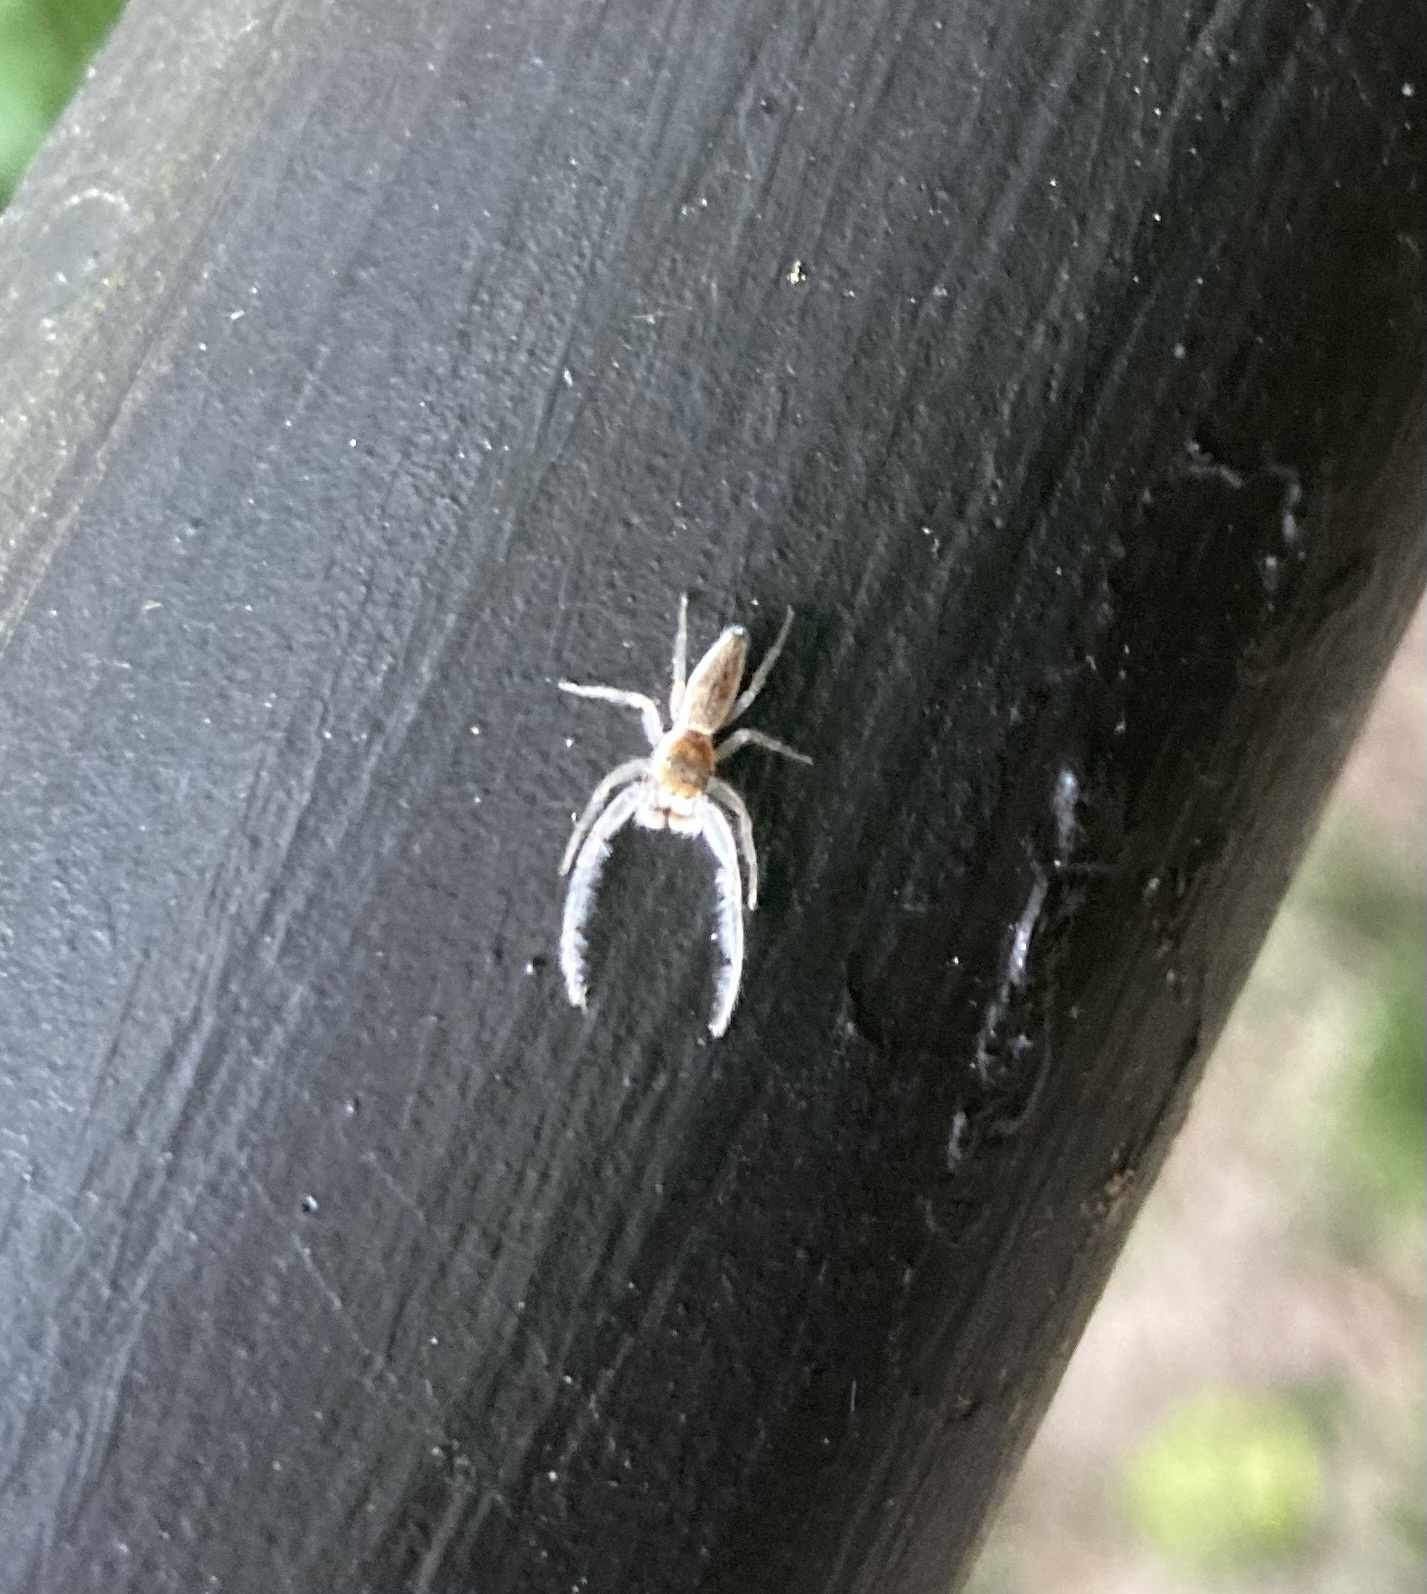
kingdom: Animalia
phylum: Arthropoda
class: Arachnida
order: Araneae
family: Salticidae
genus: Hentzia
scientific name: Hentzia mitrata
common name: White-jawed jumping spider
